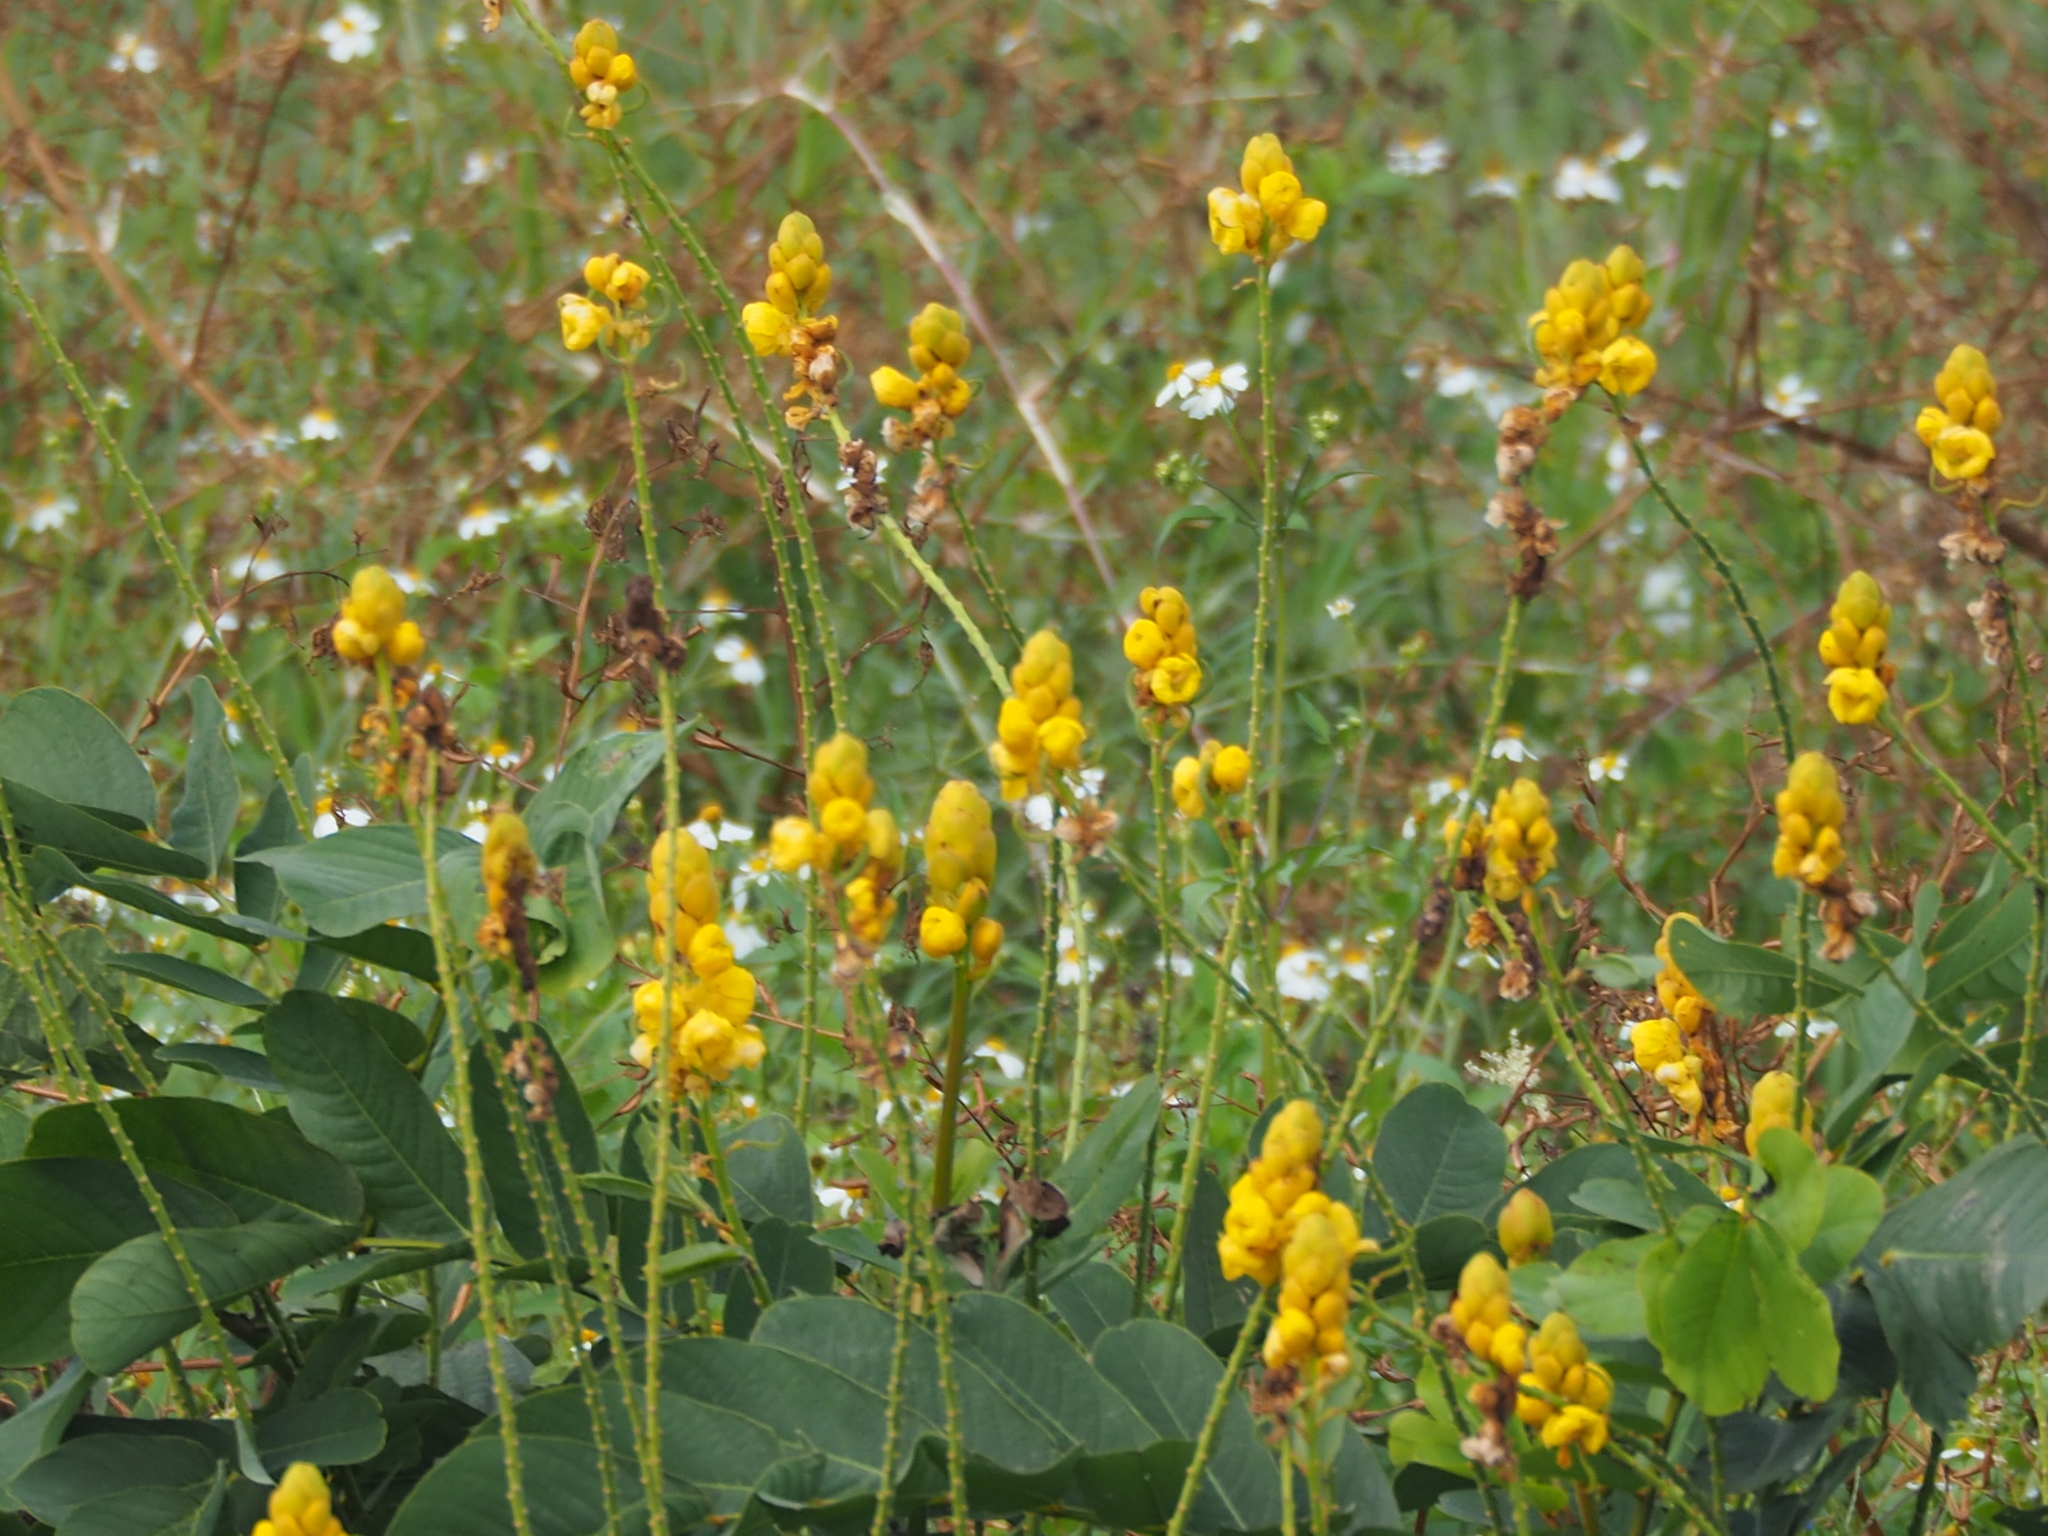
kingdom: Plantae
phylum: Tracheophyta
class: Magnoliopsida
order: Fabales
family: Fabaceae
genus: Senna
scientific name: Senna alata
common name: Emperor's candlesticks
